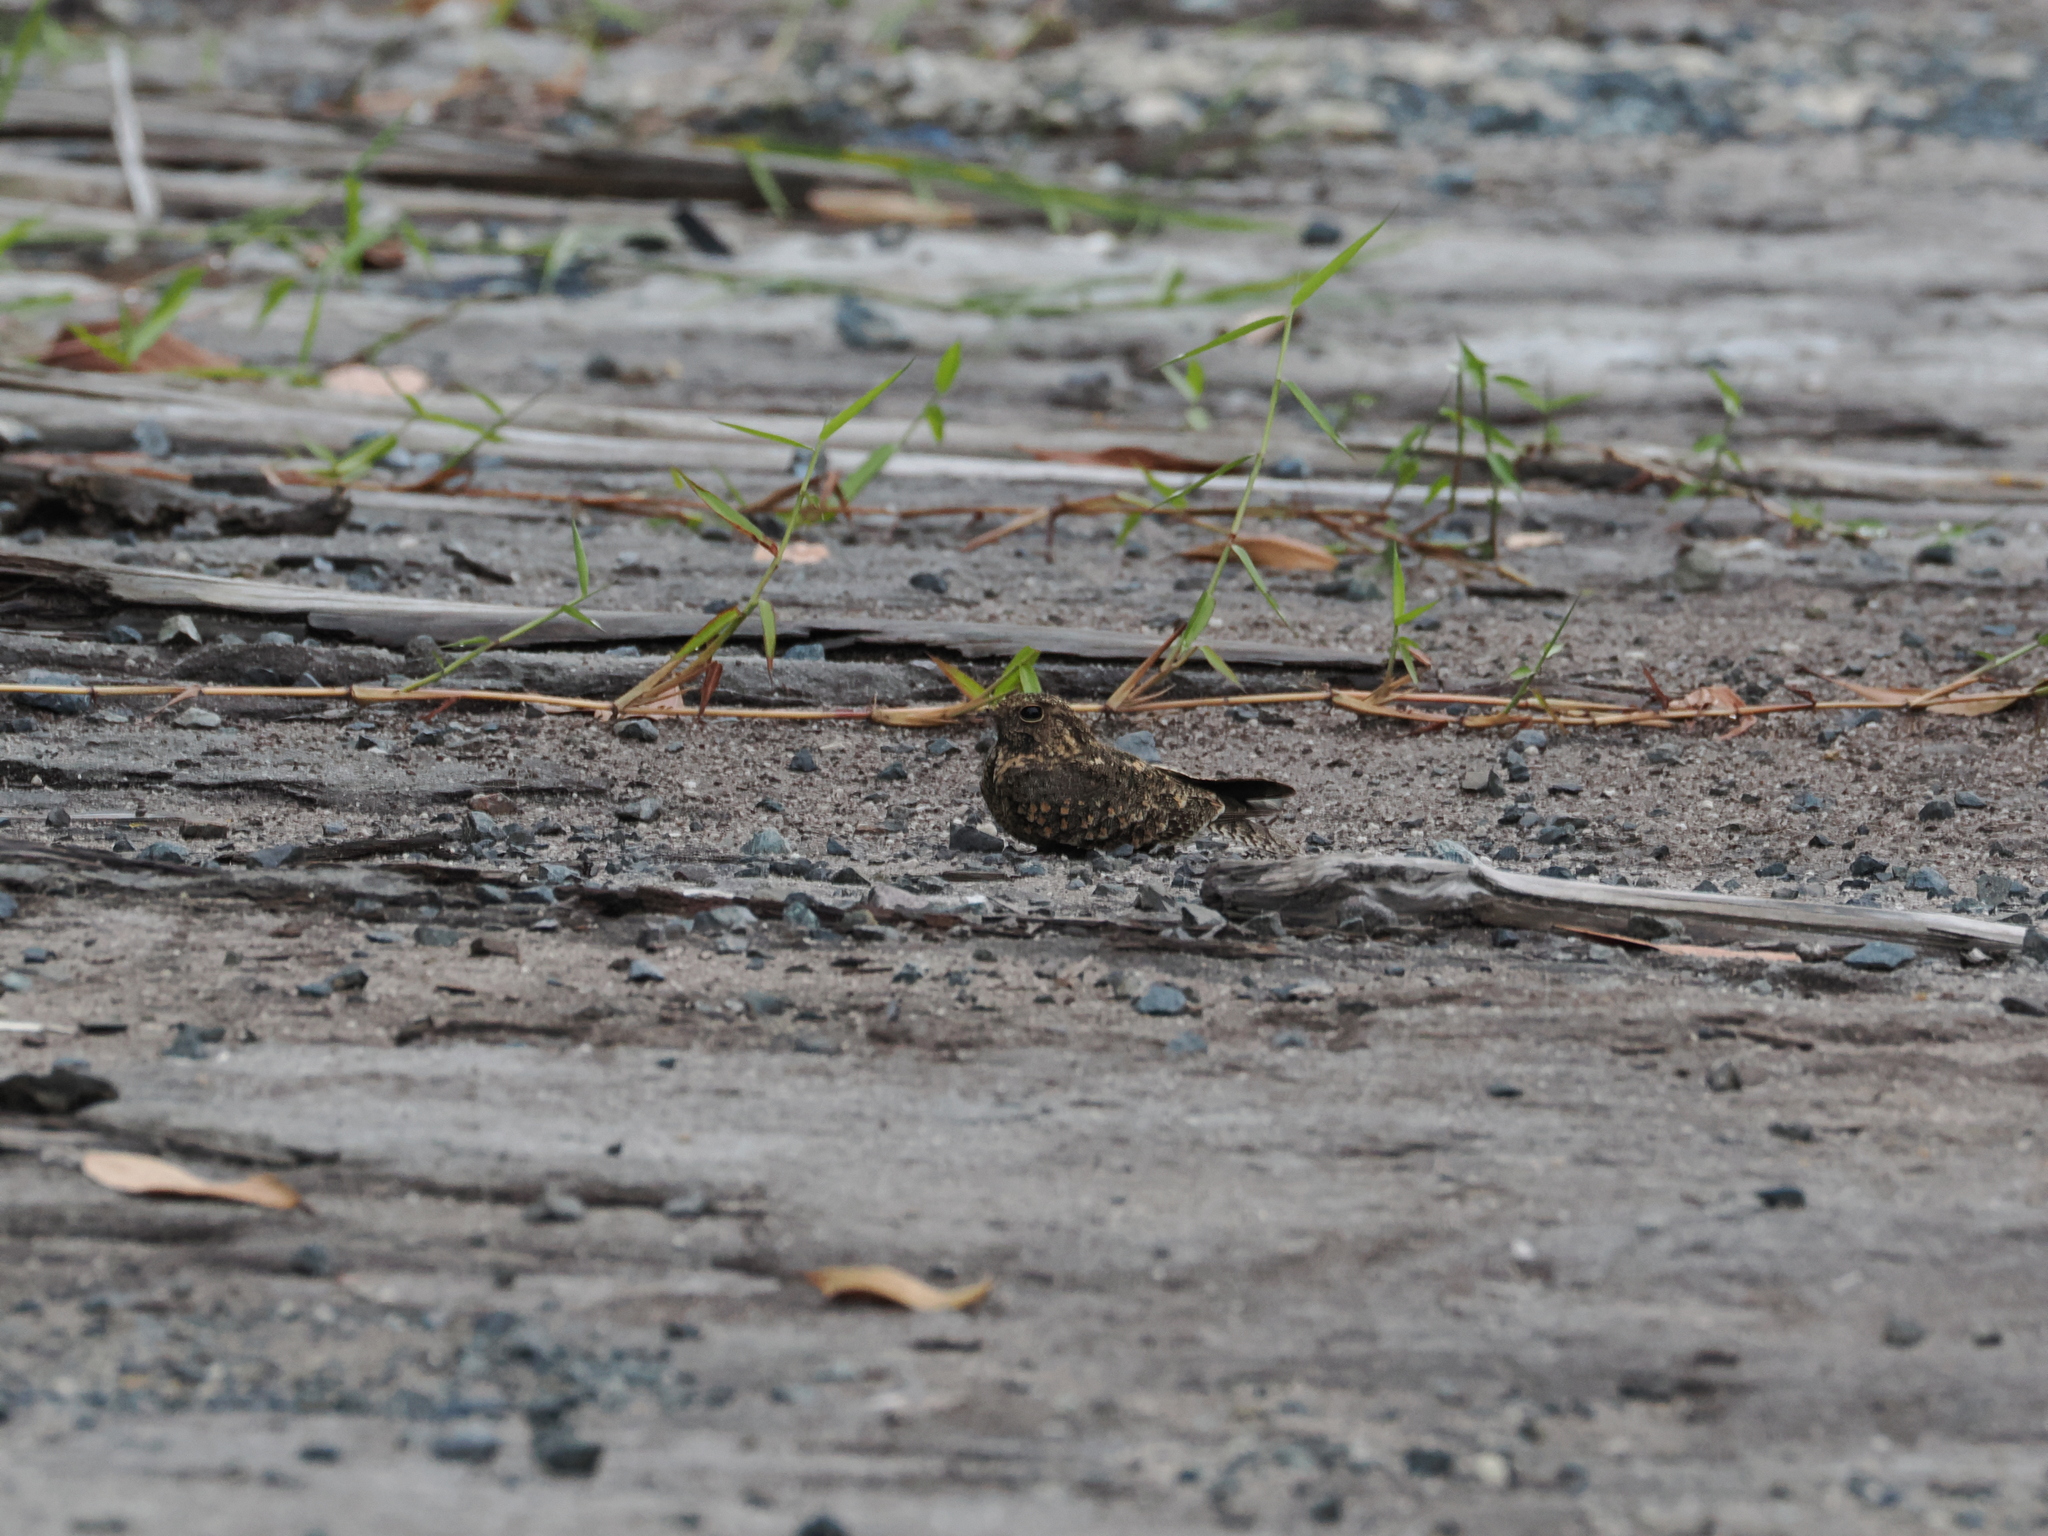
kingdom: Animalia
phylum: Chordata
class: Aves
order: Caprimulgiformes
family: Caprimulgidae
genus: Caprimulgus
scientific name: Caprimulgus affinis
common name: Savanna nightjar
